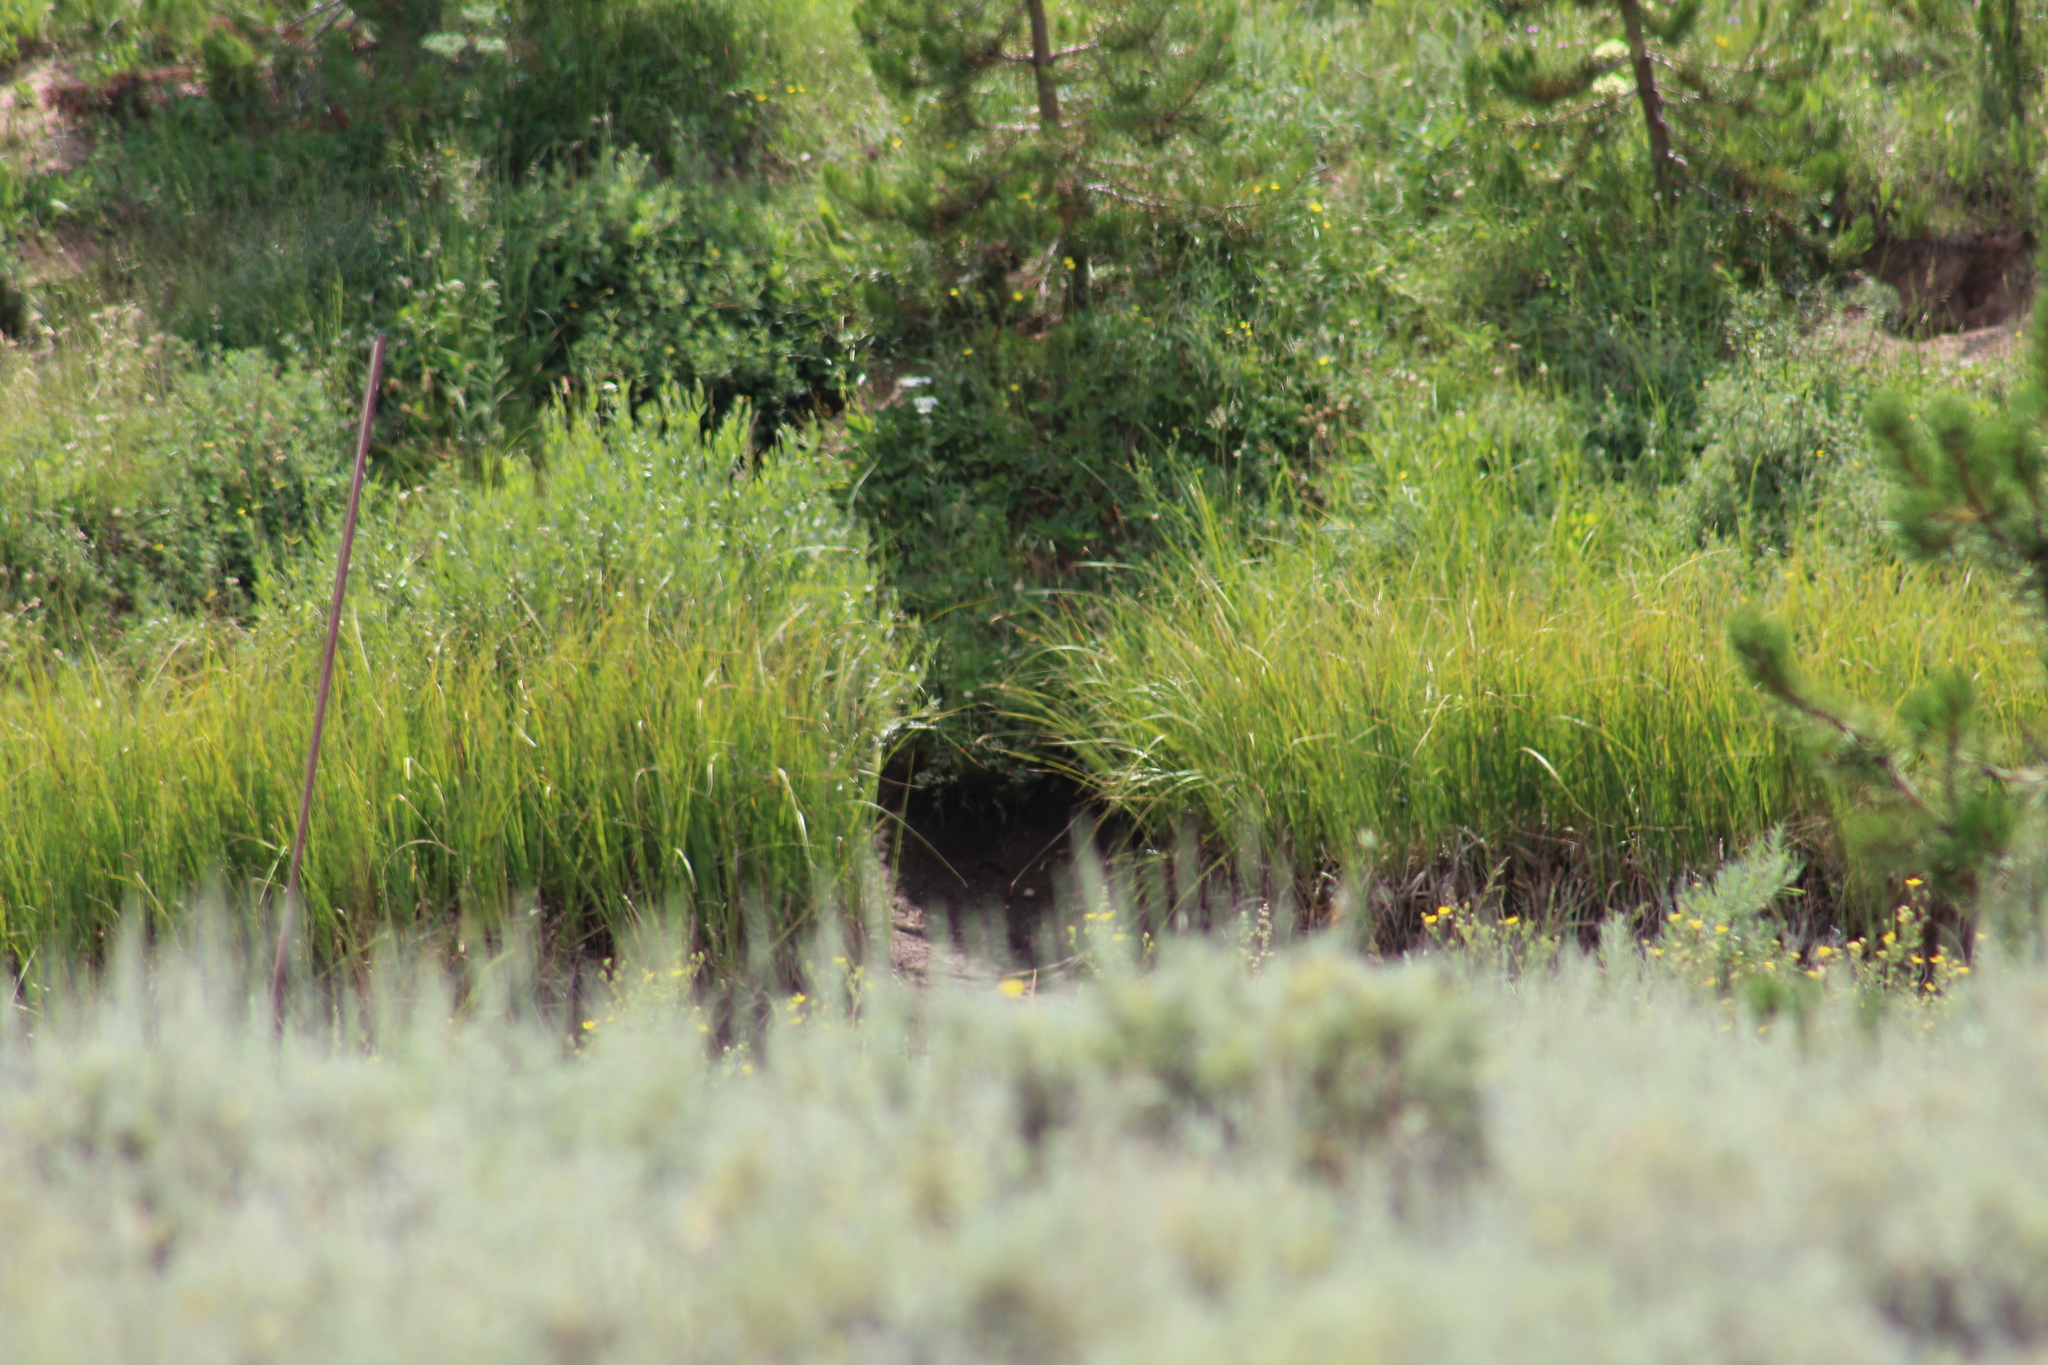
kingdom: Animalia
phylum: Chordata
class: Mammalia
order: Rodentia
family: Cricetidae
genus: Ondatra
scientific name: Ondatra zibethicus
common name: Muskrat
